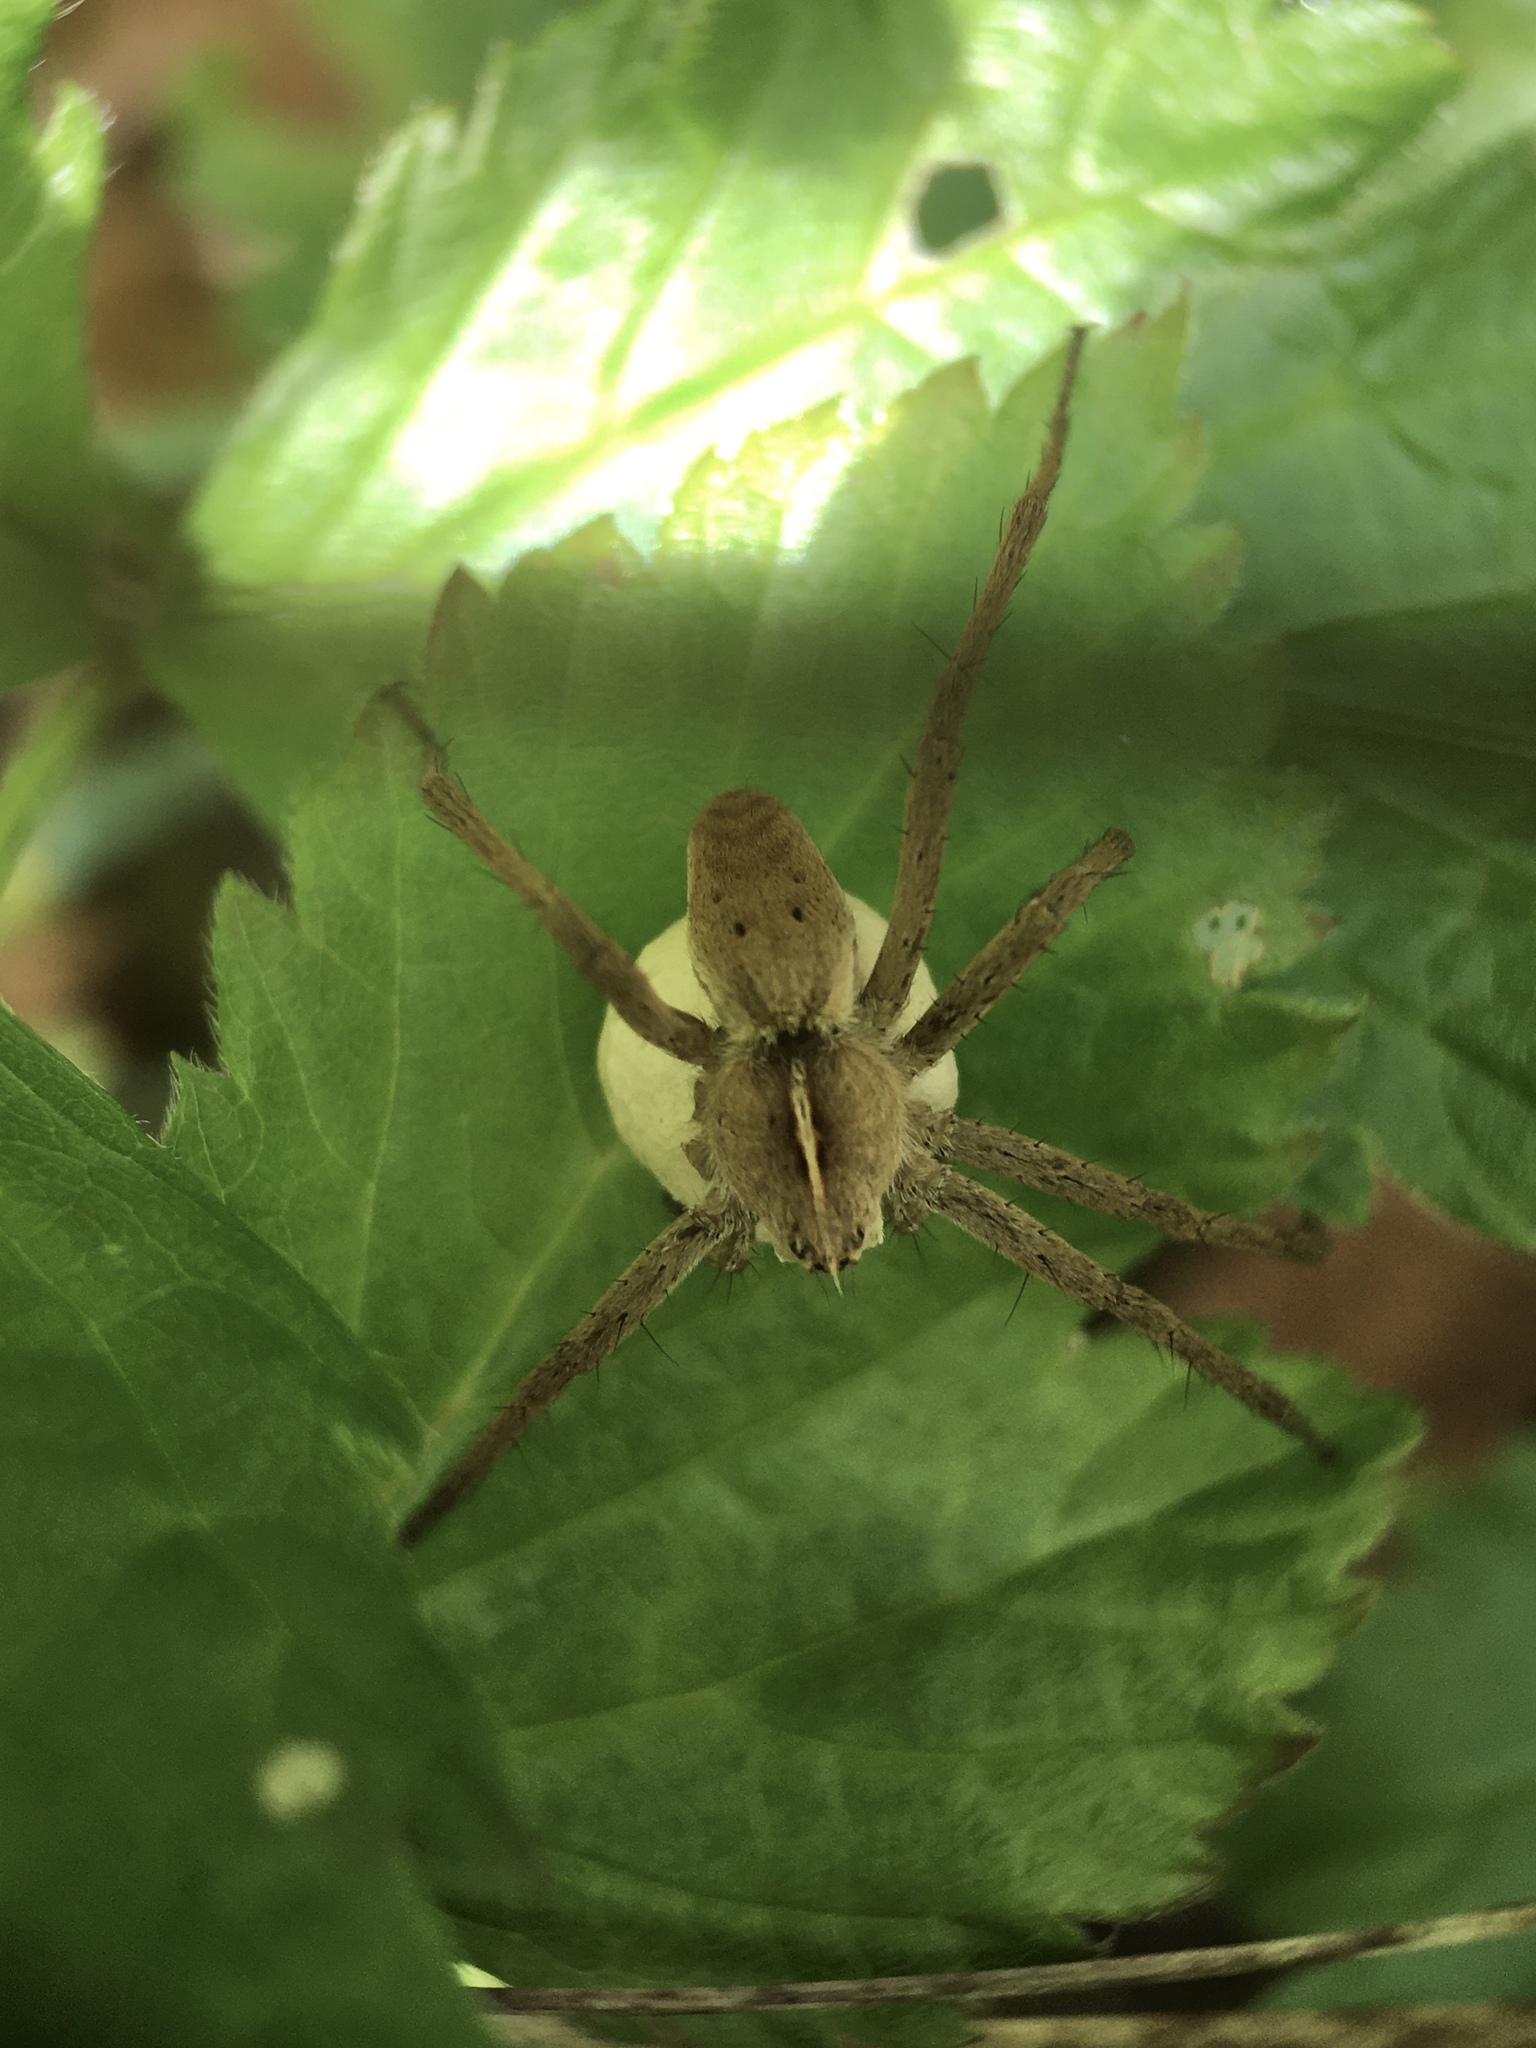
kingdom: Animalia
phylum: Arthropoda
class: Arachnida
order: Araneae
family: Pisauridae
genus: Pisaura
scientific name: Pisaura mirabilis
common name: Tent spider
